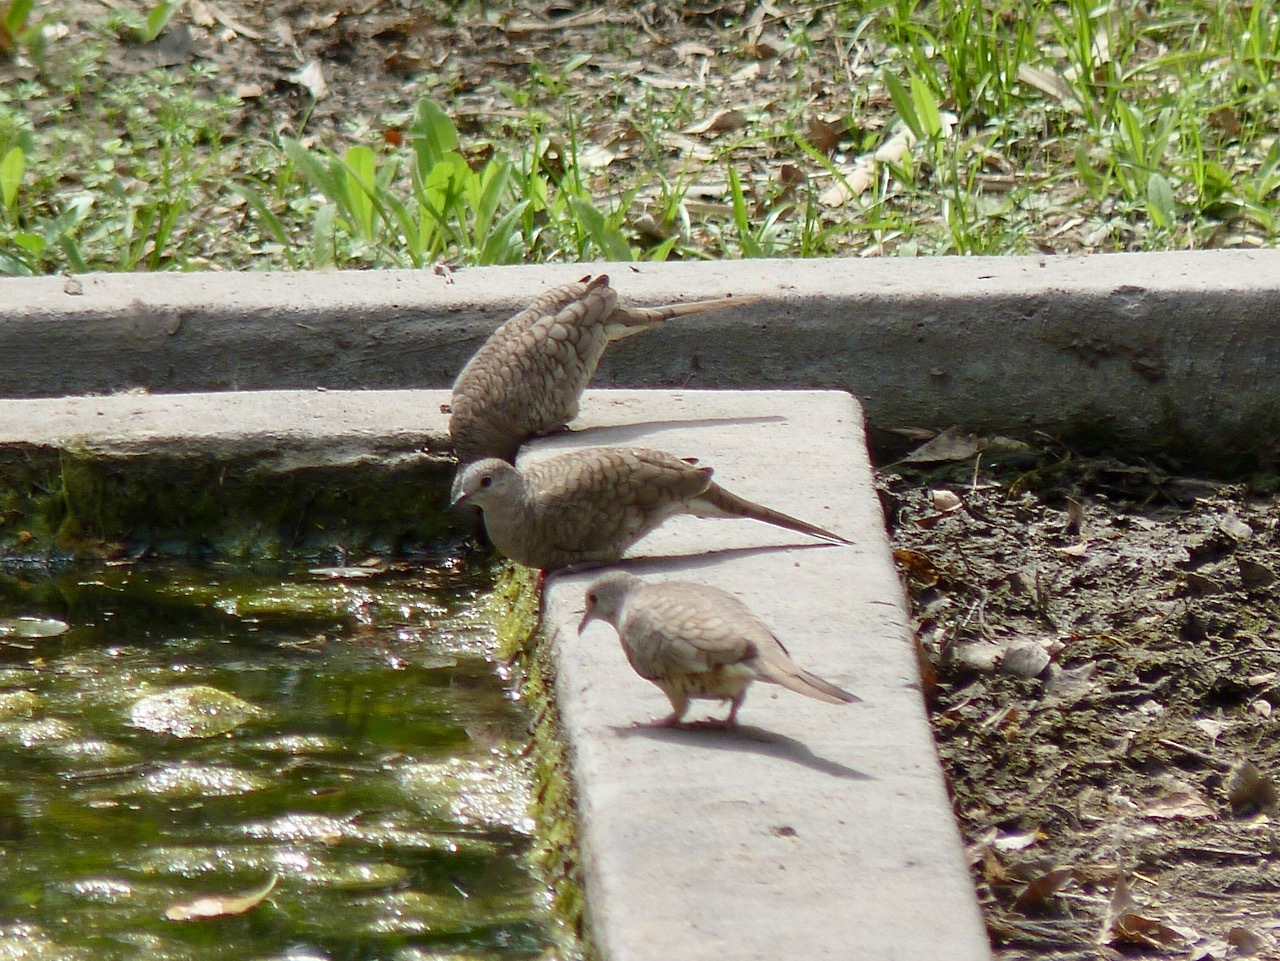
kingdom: Animalia
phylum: Chordata
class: Aves
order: Columbiformes
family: Columbidae
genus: Columbina
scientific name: Columbina inca
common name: Inca dove
